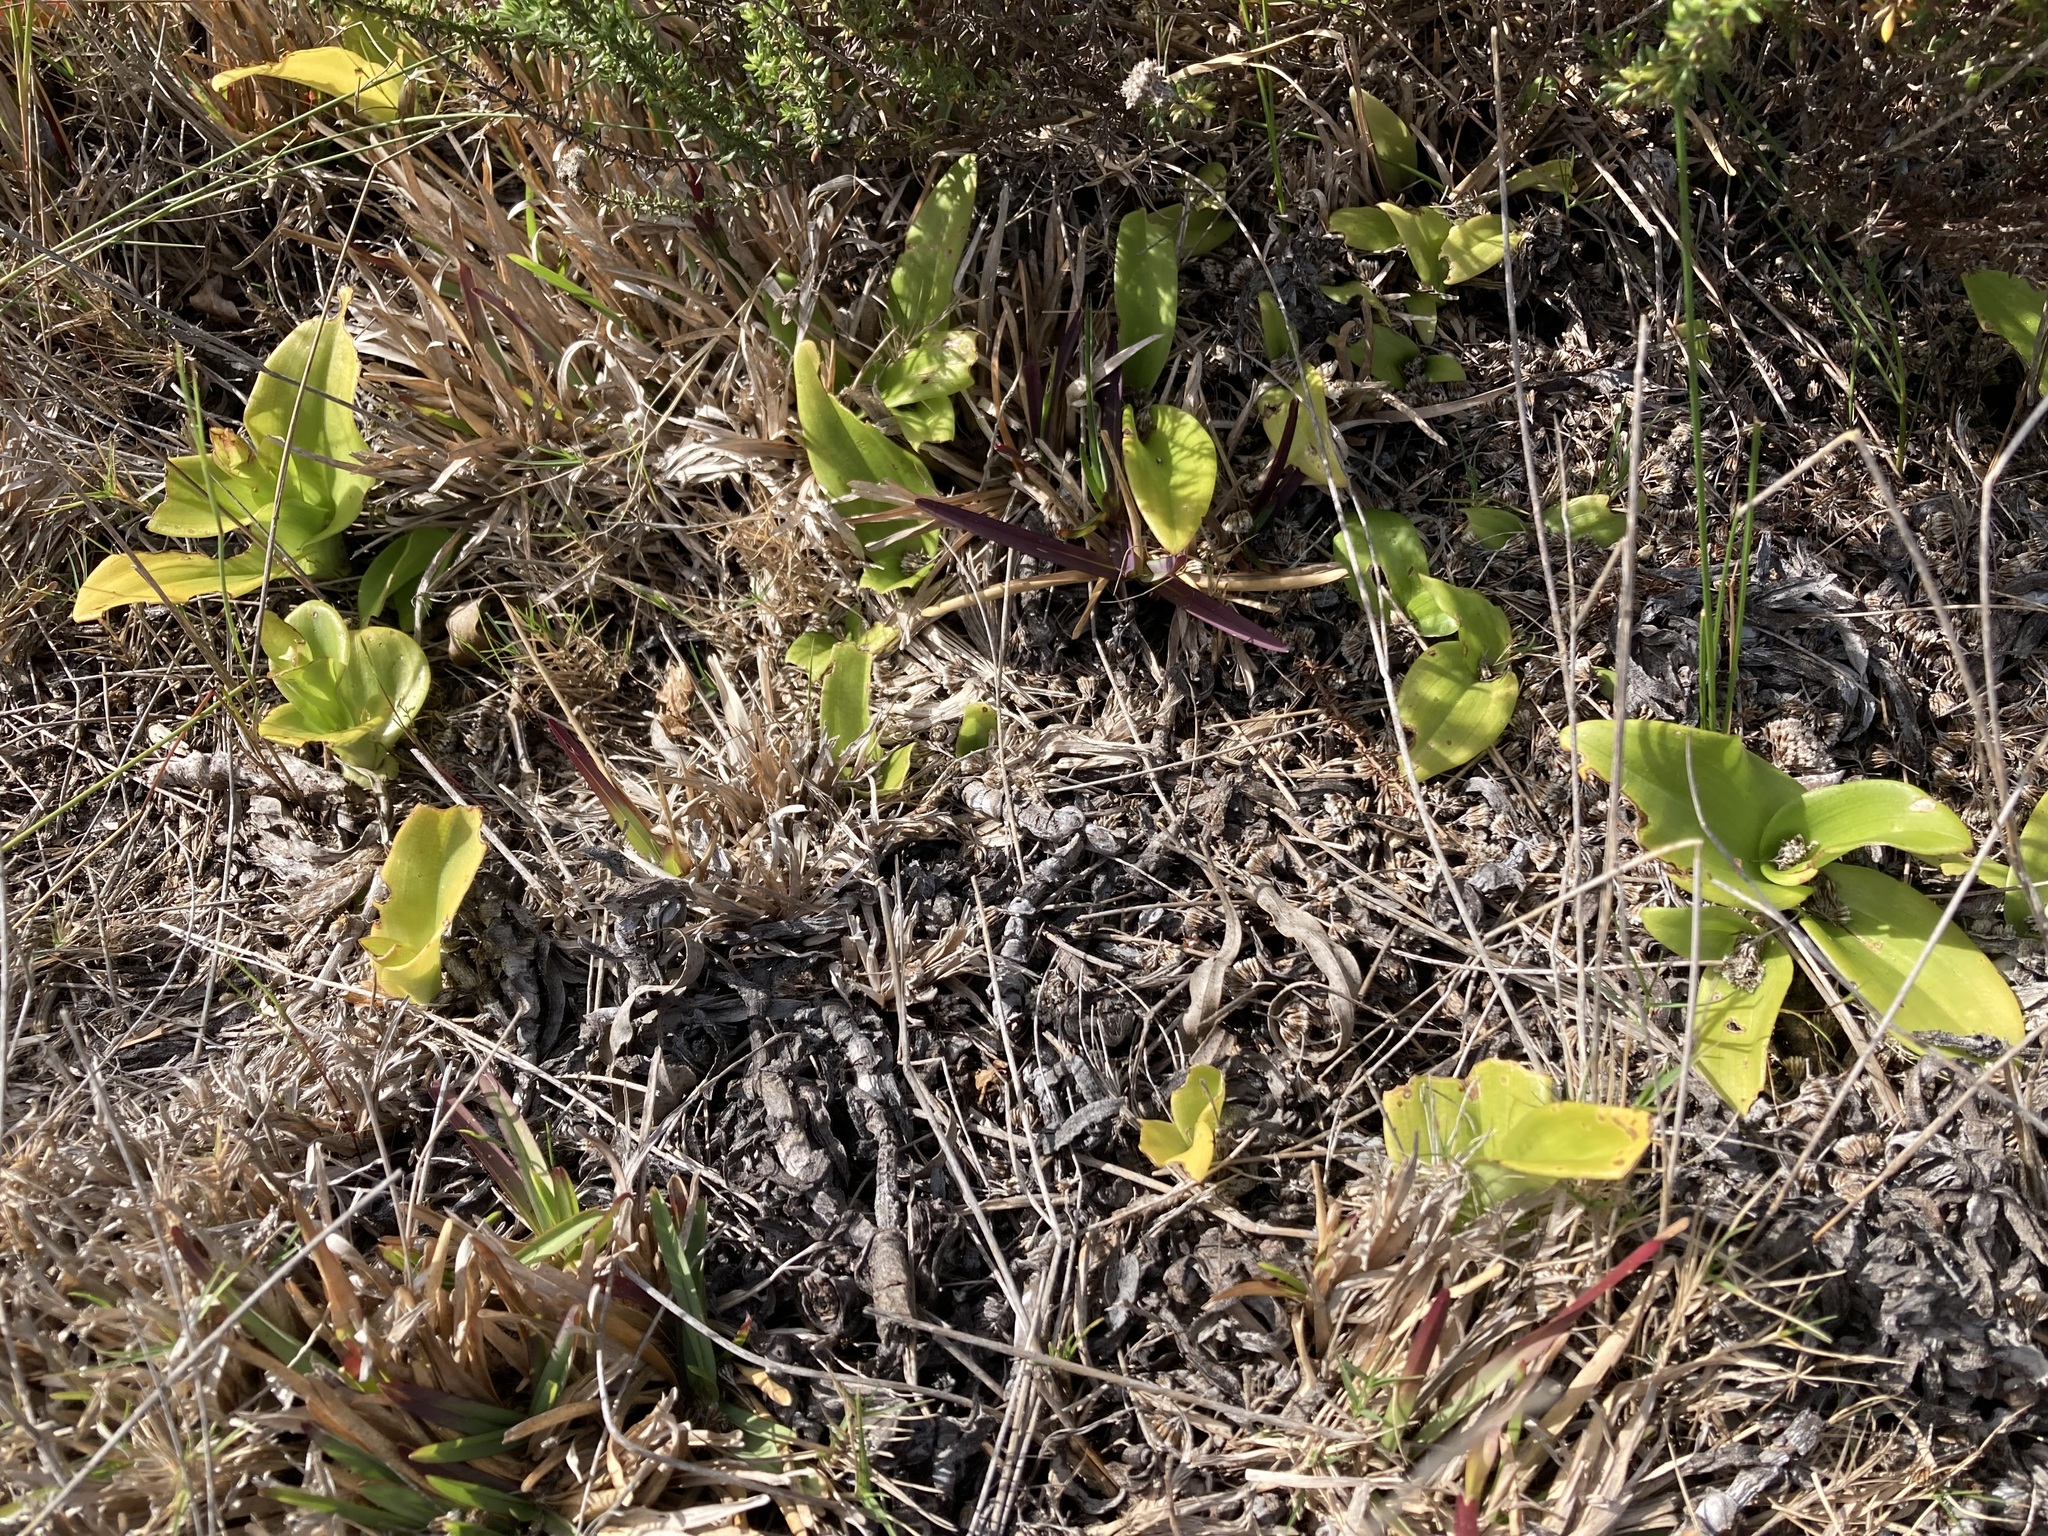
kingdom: Plantae
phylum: Tracheophyta
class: Liliopsida
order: Asparagales
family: Orchidaceae
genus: Satyrium
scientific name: Satyrium odorum
